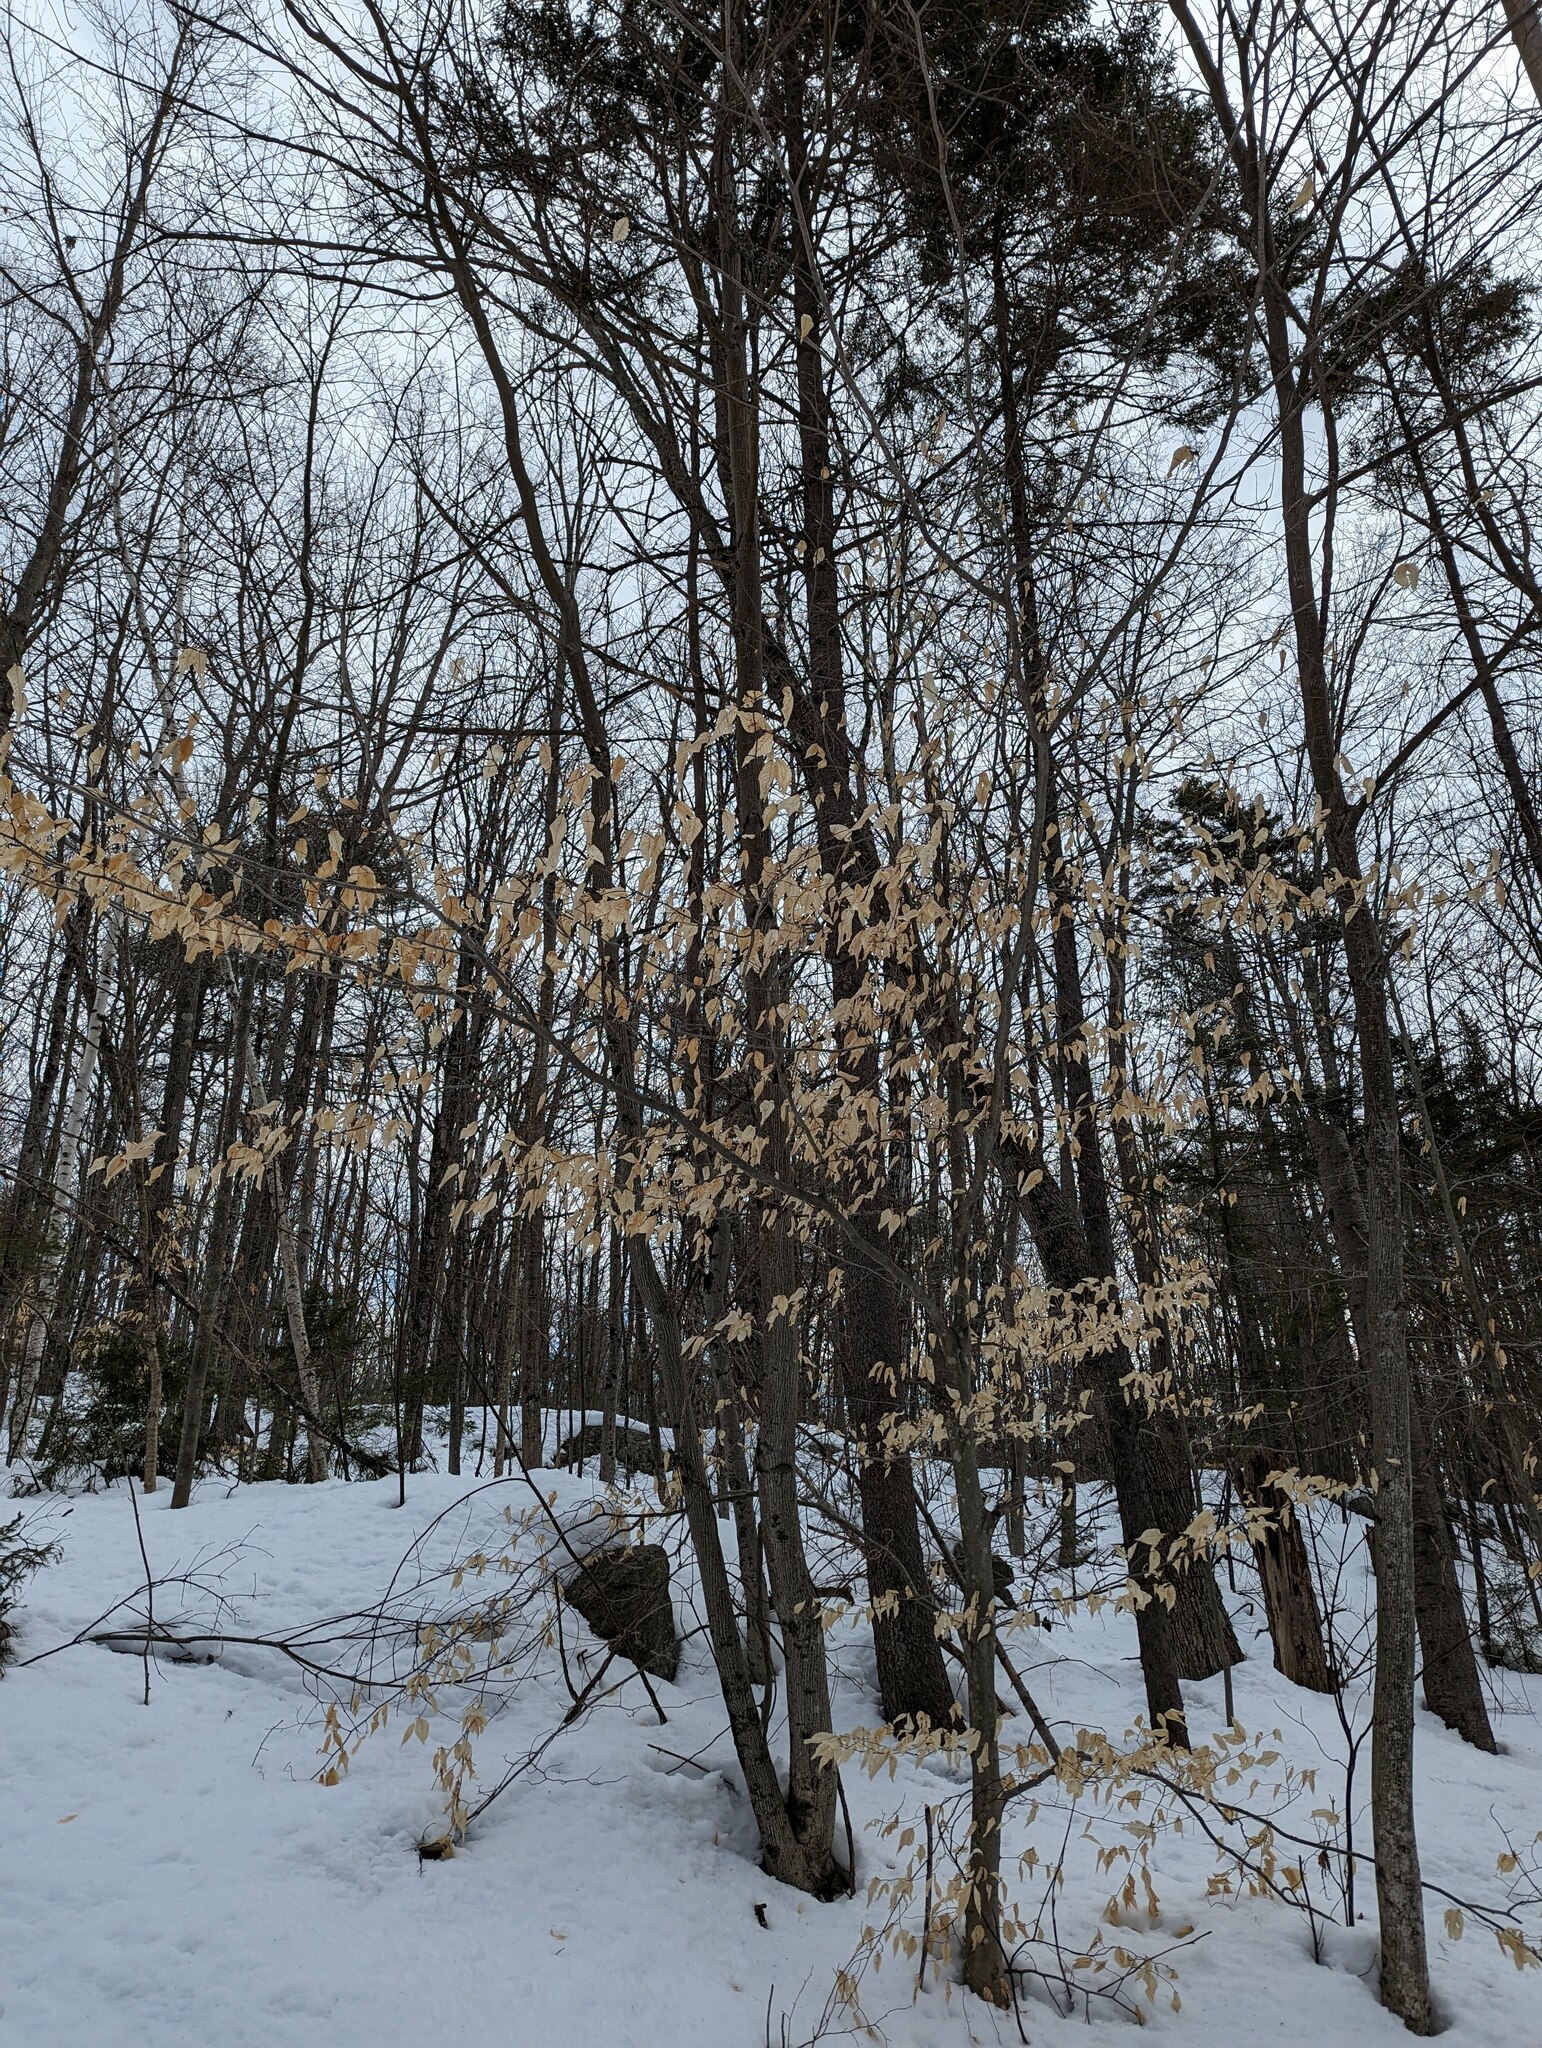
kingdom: Plantae
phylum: Tracheophyta
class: Magnoliopsida
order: Fagales
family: Fagaceae
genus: Fagus
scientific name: Fagus grandifolia
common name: American beech
